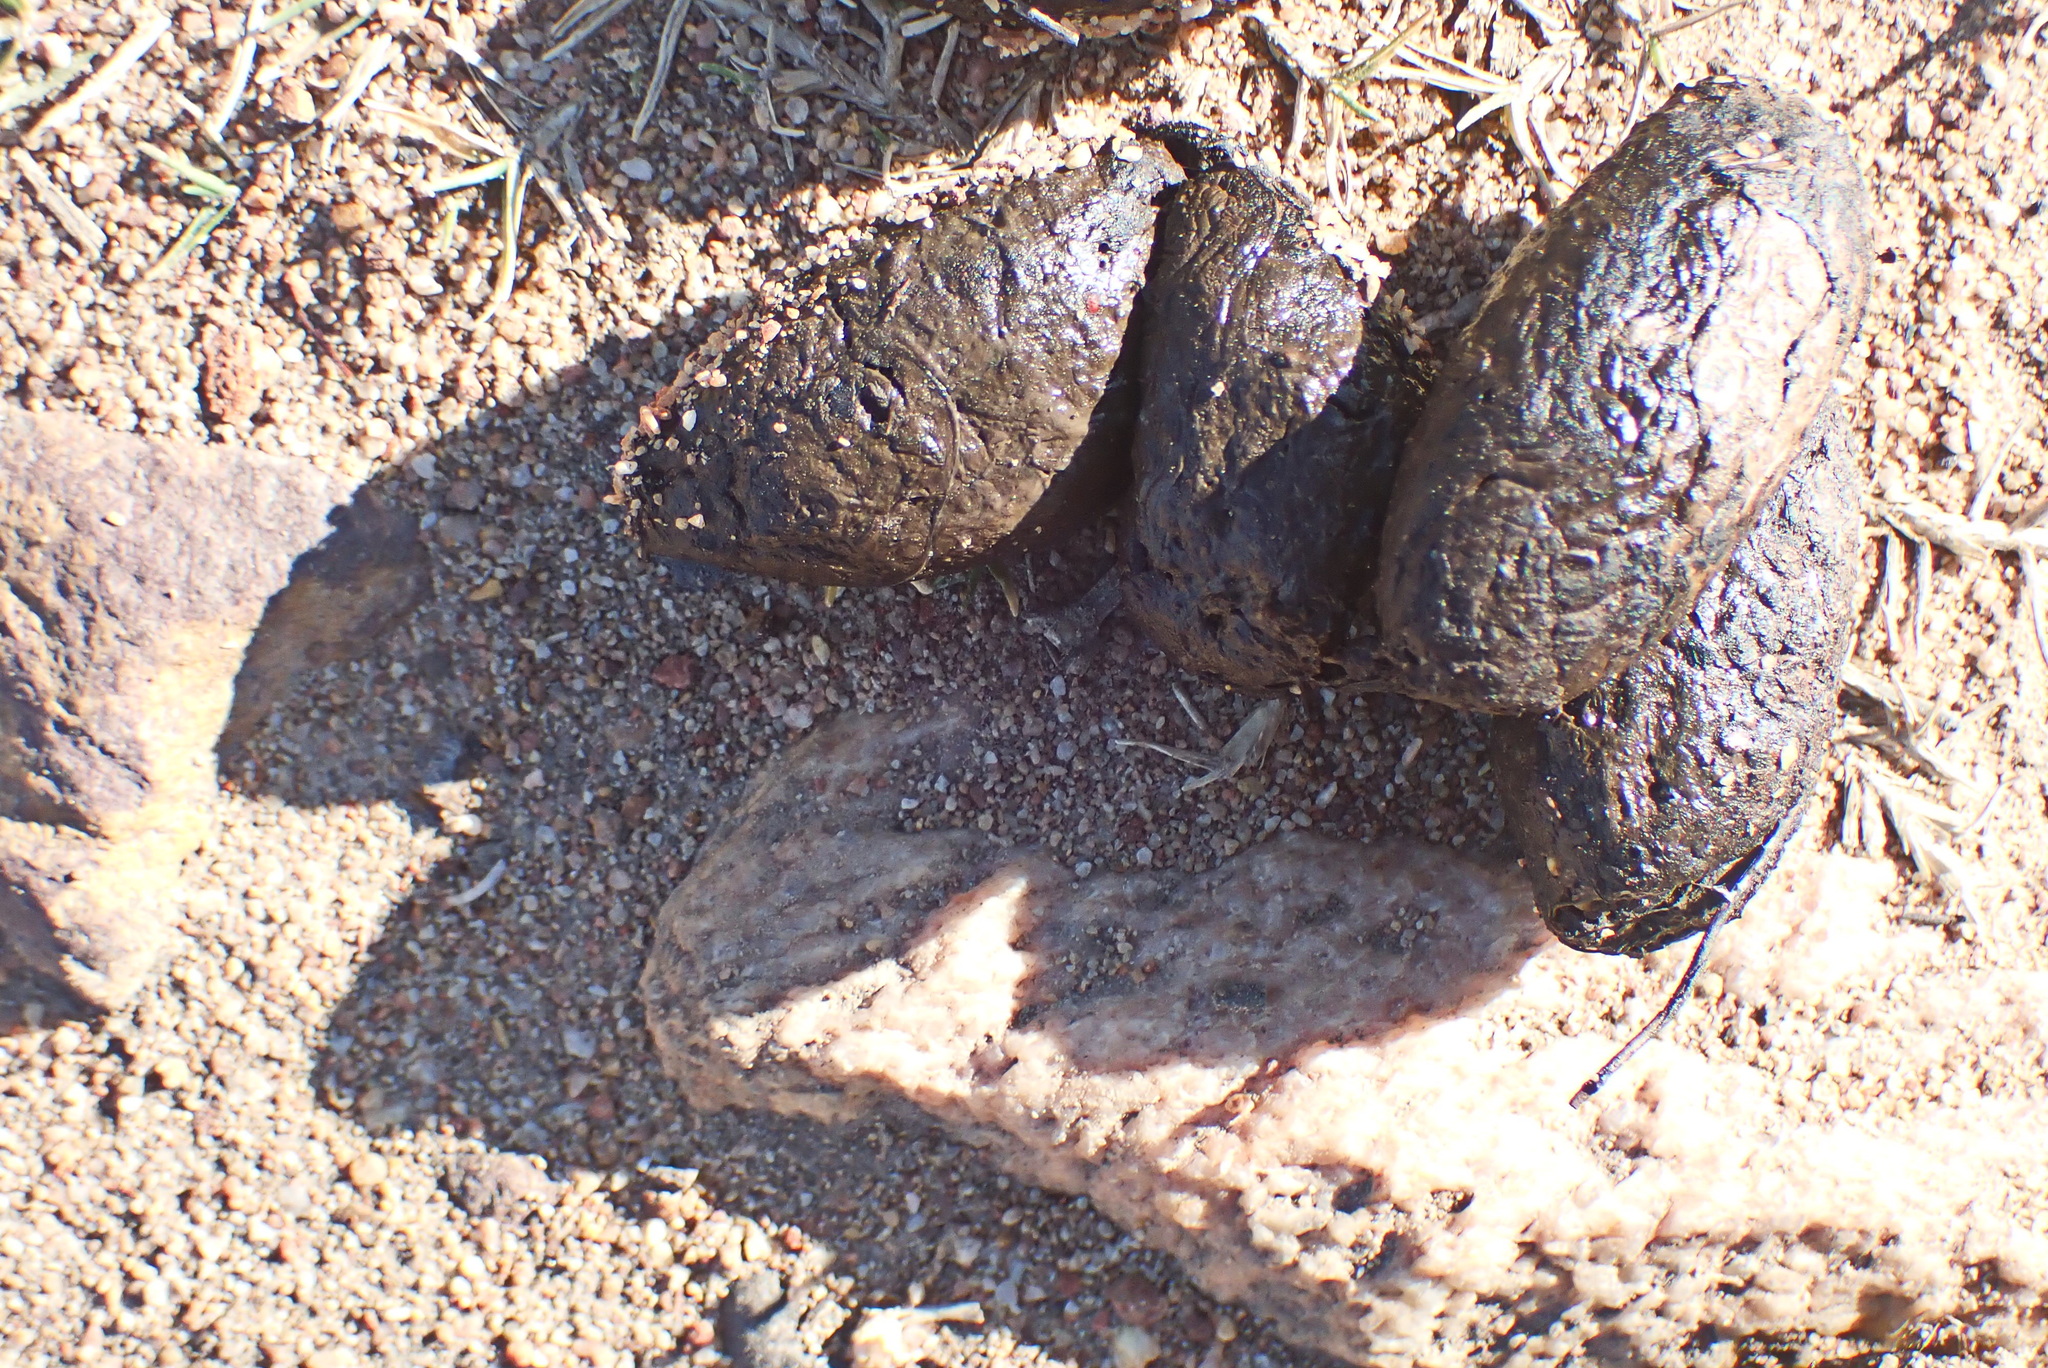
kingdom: Animalia
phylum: Chordata
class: Mammalia
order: Rodentia
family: Hystricidae
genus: Hystrix
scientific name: Hystrix africaeaustralis
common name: Cape porcupine
